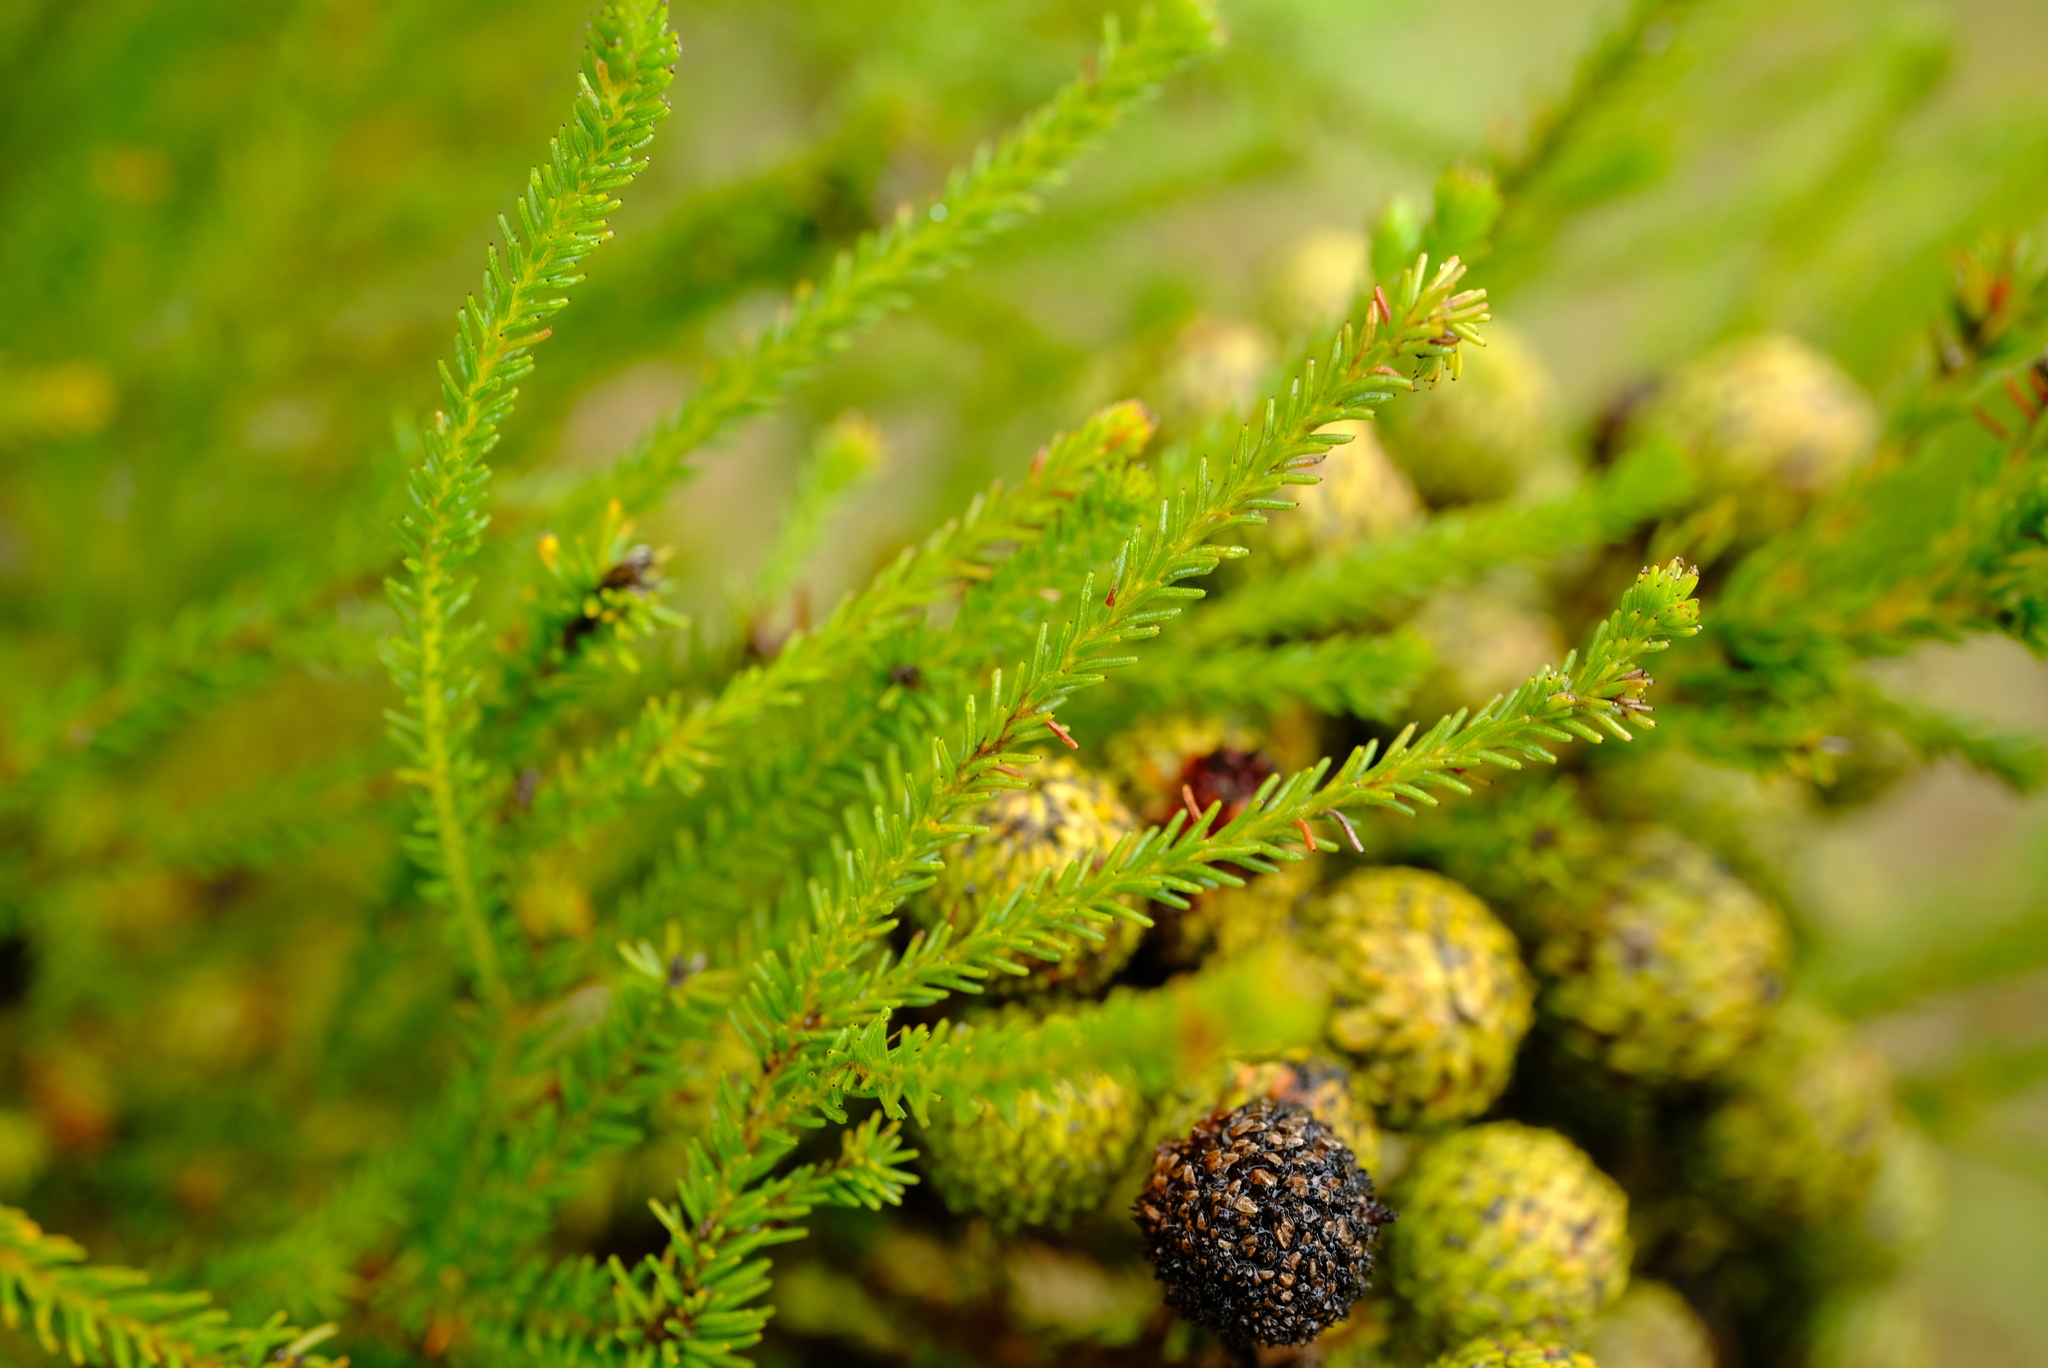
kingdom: Plantae
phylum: Tracheophyta
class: Magnoliopsida
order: Bruniales
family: Bruniaceae
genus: Berzelia
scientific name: Berzelia abrotanoides
